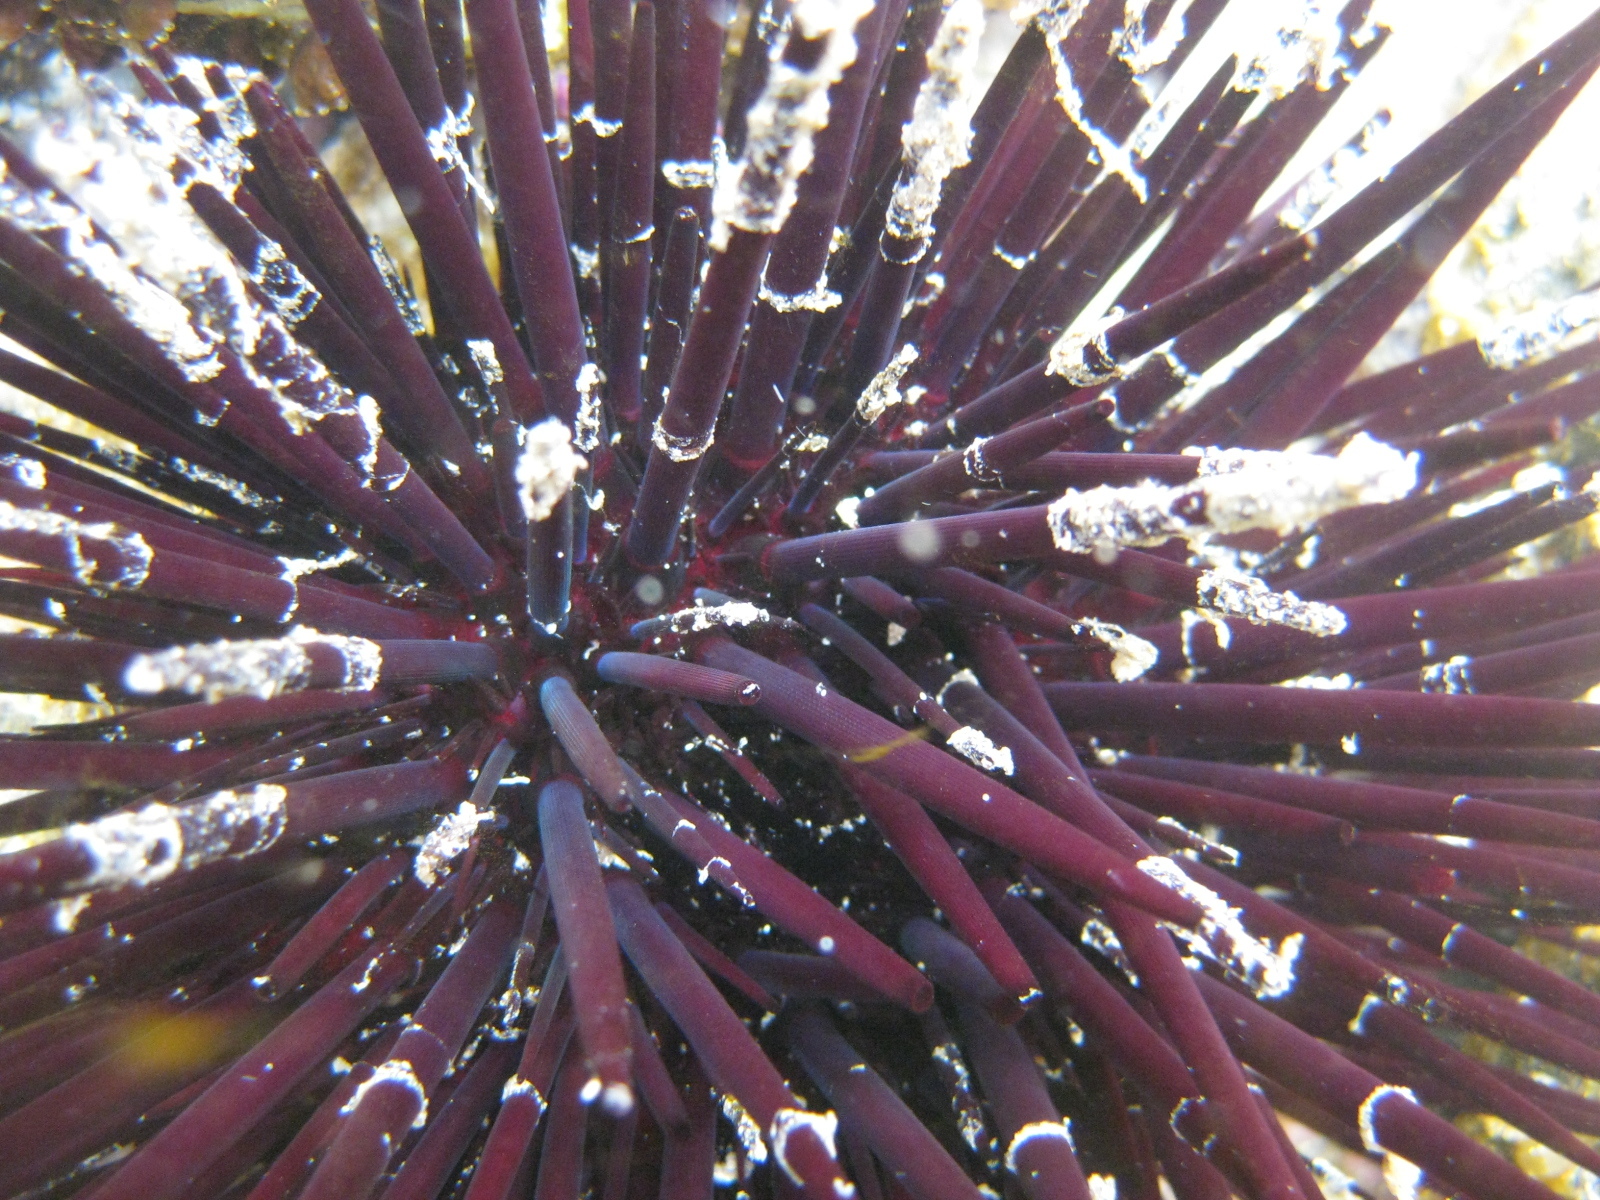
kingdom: Animalia
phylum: Echinodermata
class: Echinoidea
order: Diadematoida
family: Diadematidae
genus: Centrostephanus
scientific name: Centrostephanus rodgersii
